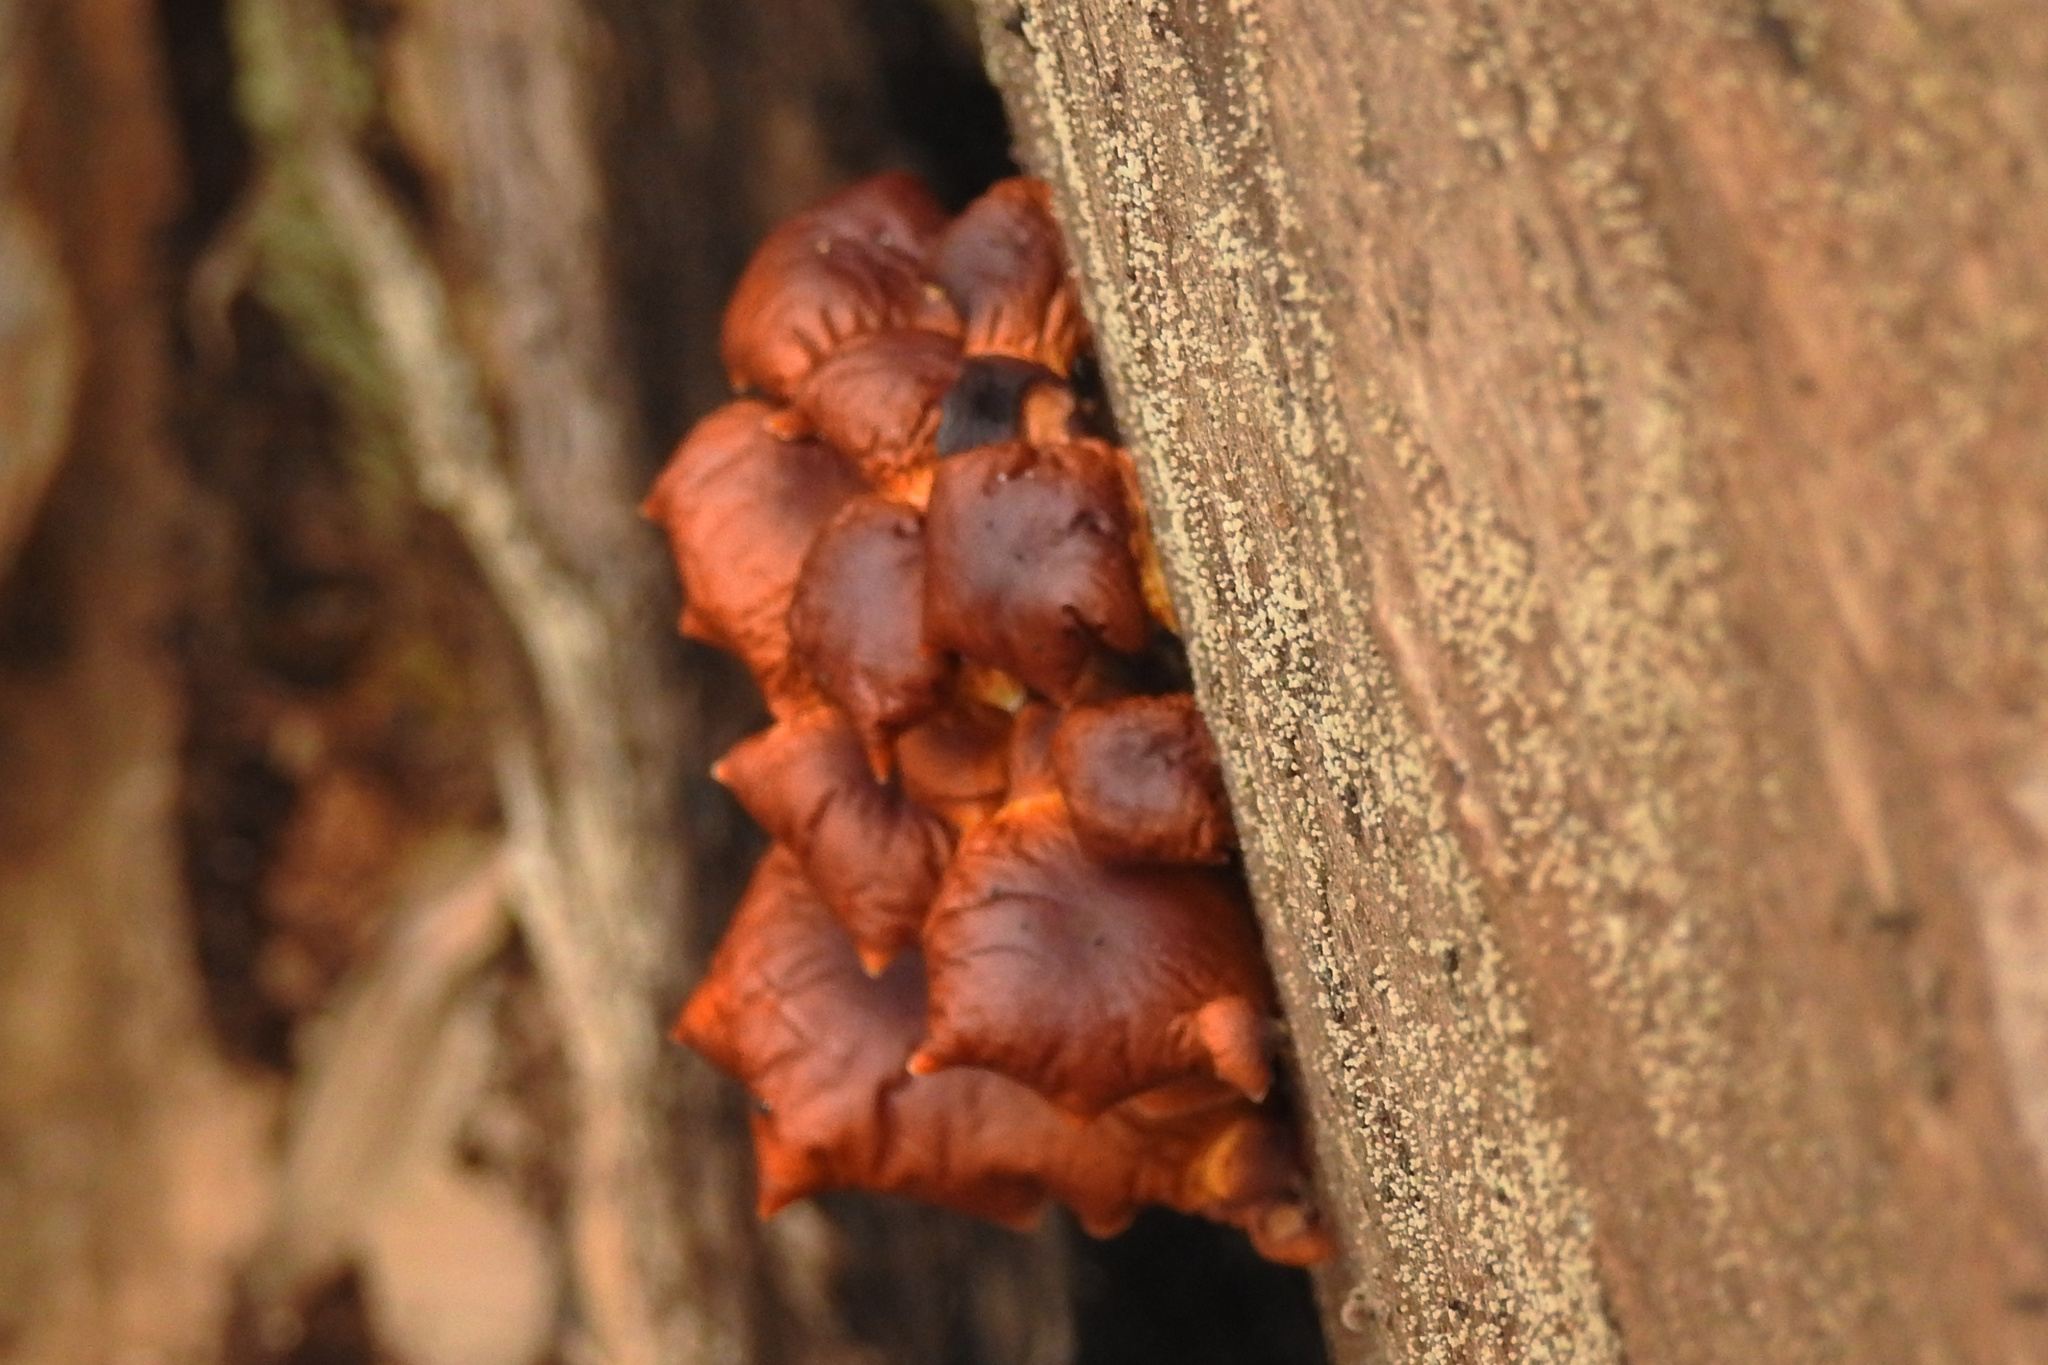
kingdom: Fungi
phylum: Basidiomycota
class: Agaricomycetes
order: Agaricales
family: Physalacriaceae
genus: Flammulina
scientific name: Flammulina velutipes
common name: Velvet shank
